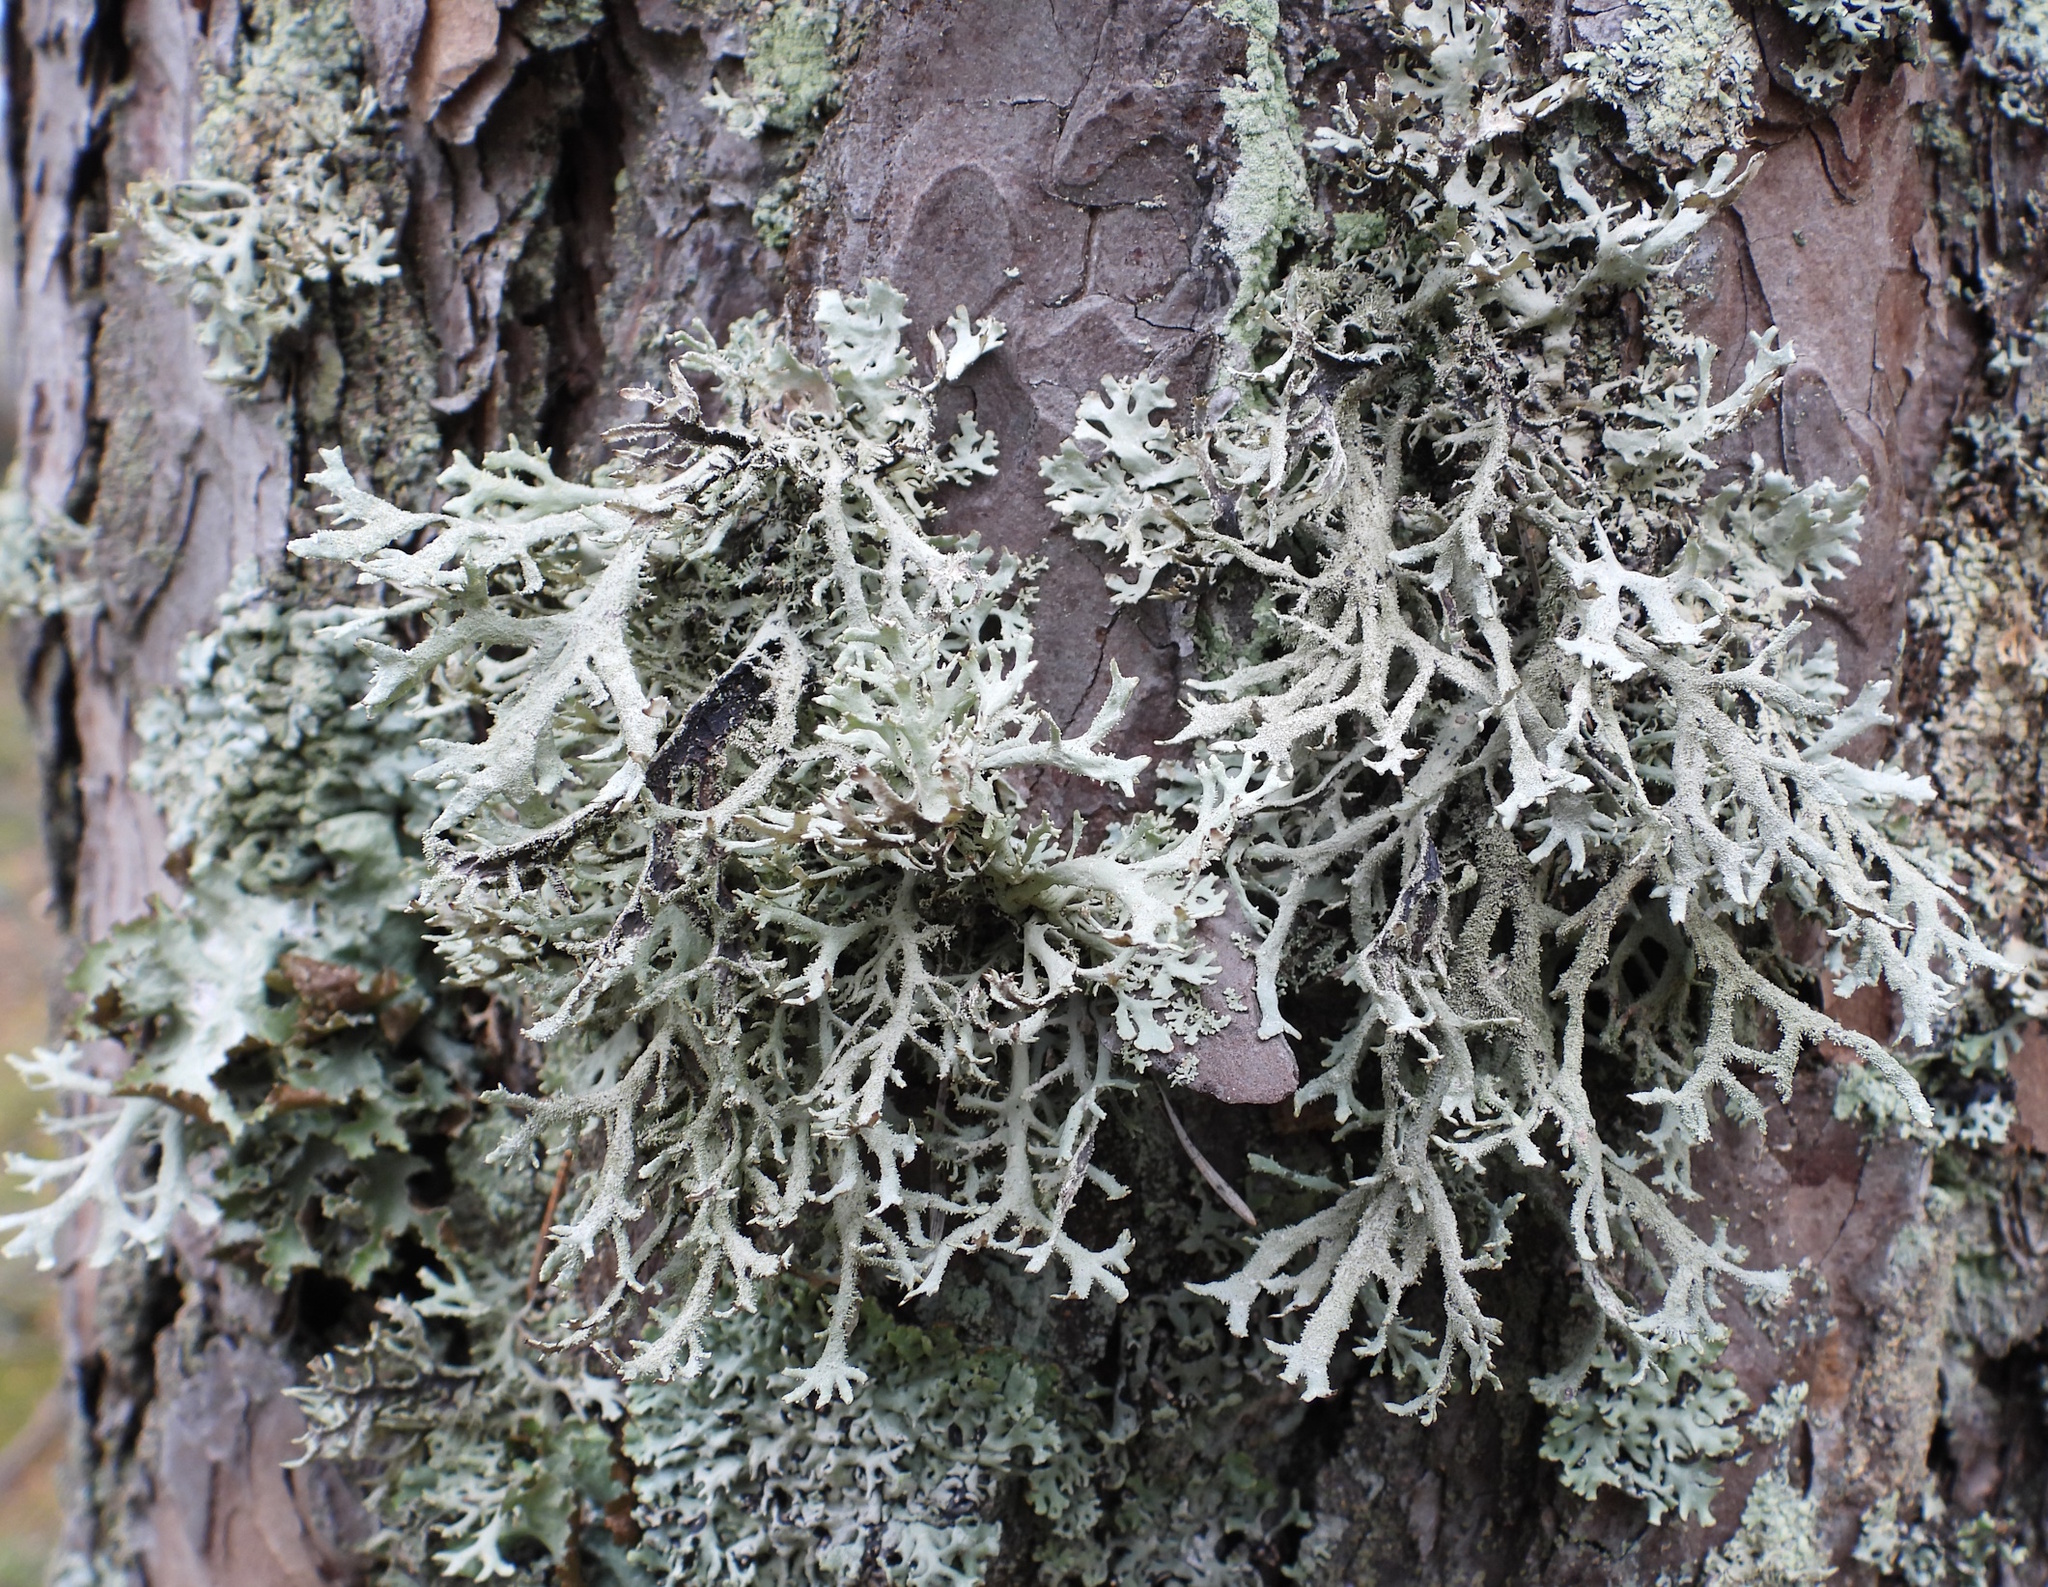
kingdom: Fungi
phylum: Ascomycota
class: Lecanoromycetes
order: Lecanorales
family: Parmeliaceae
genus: Pseudevernia
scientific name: Pseudevernia furfuracea
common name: Tree moss
